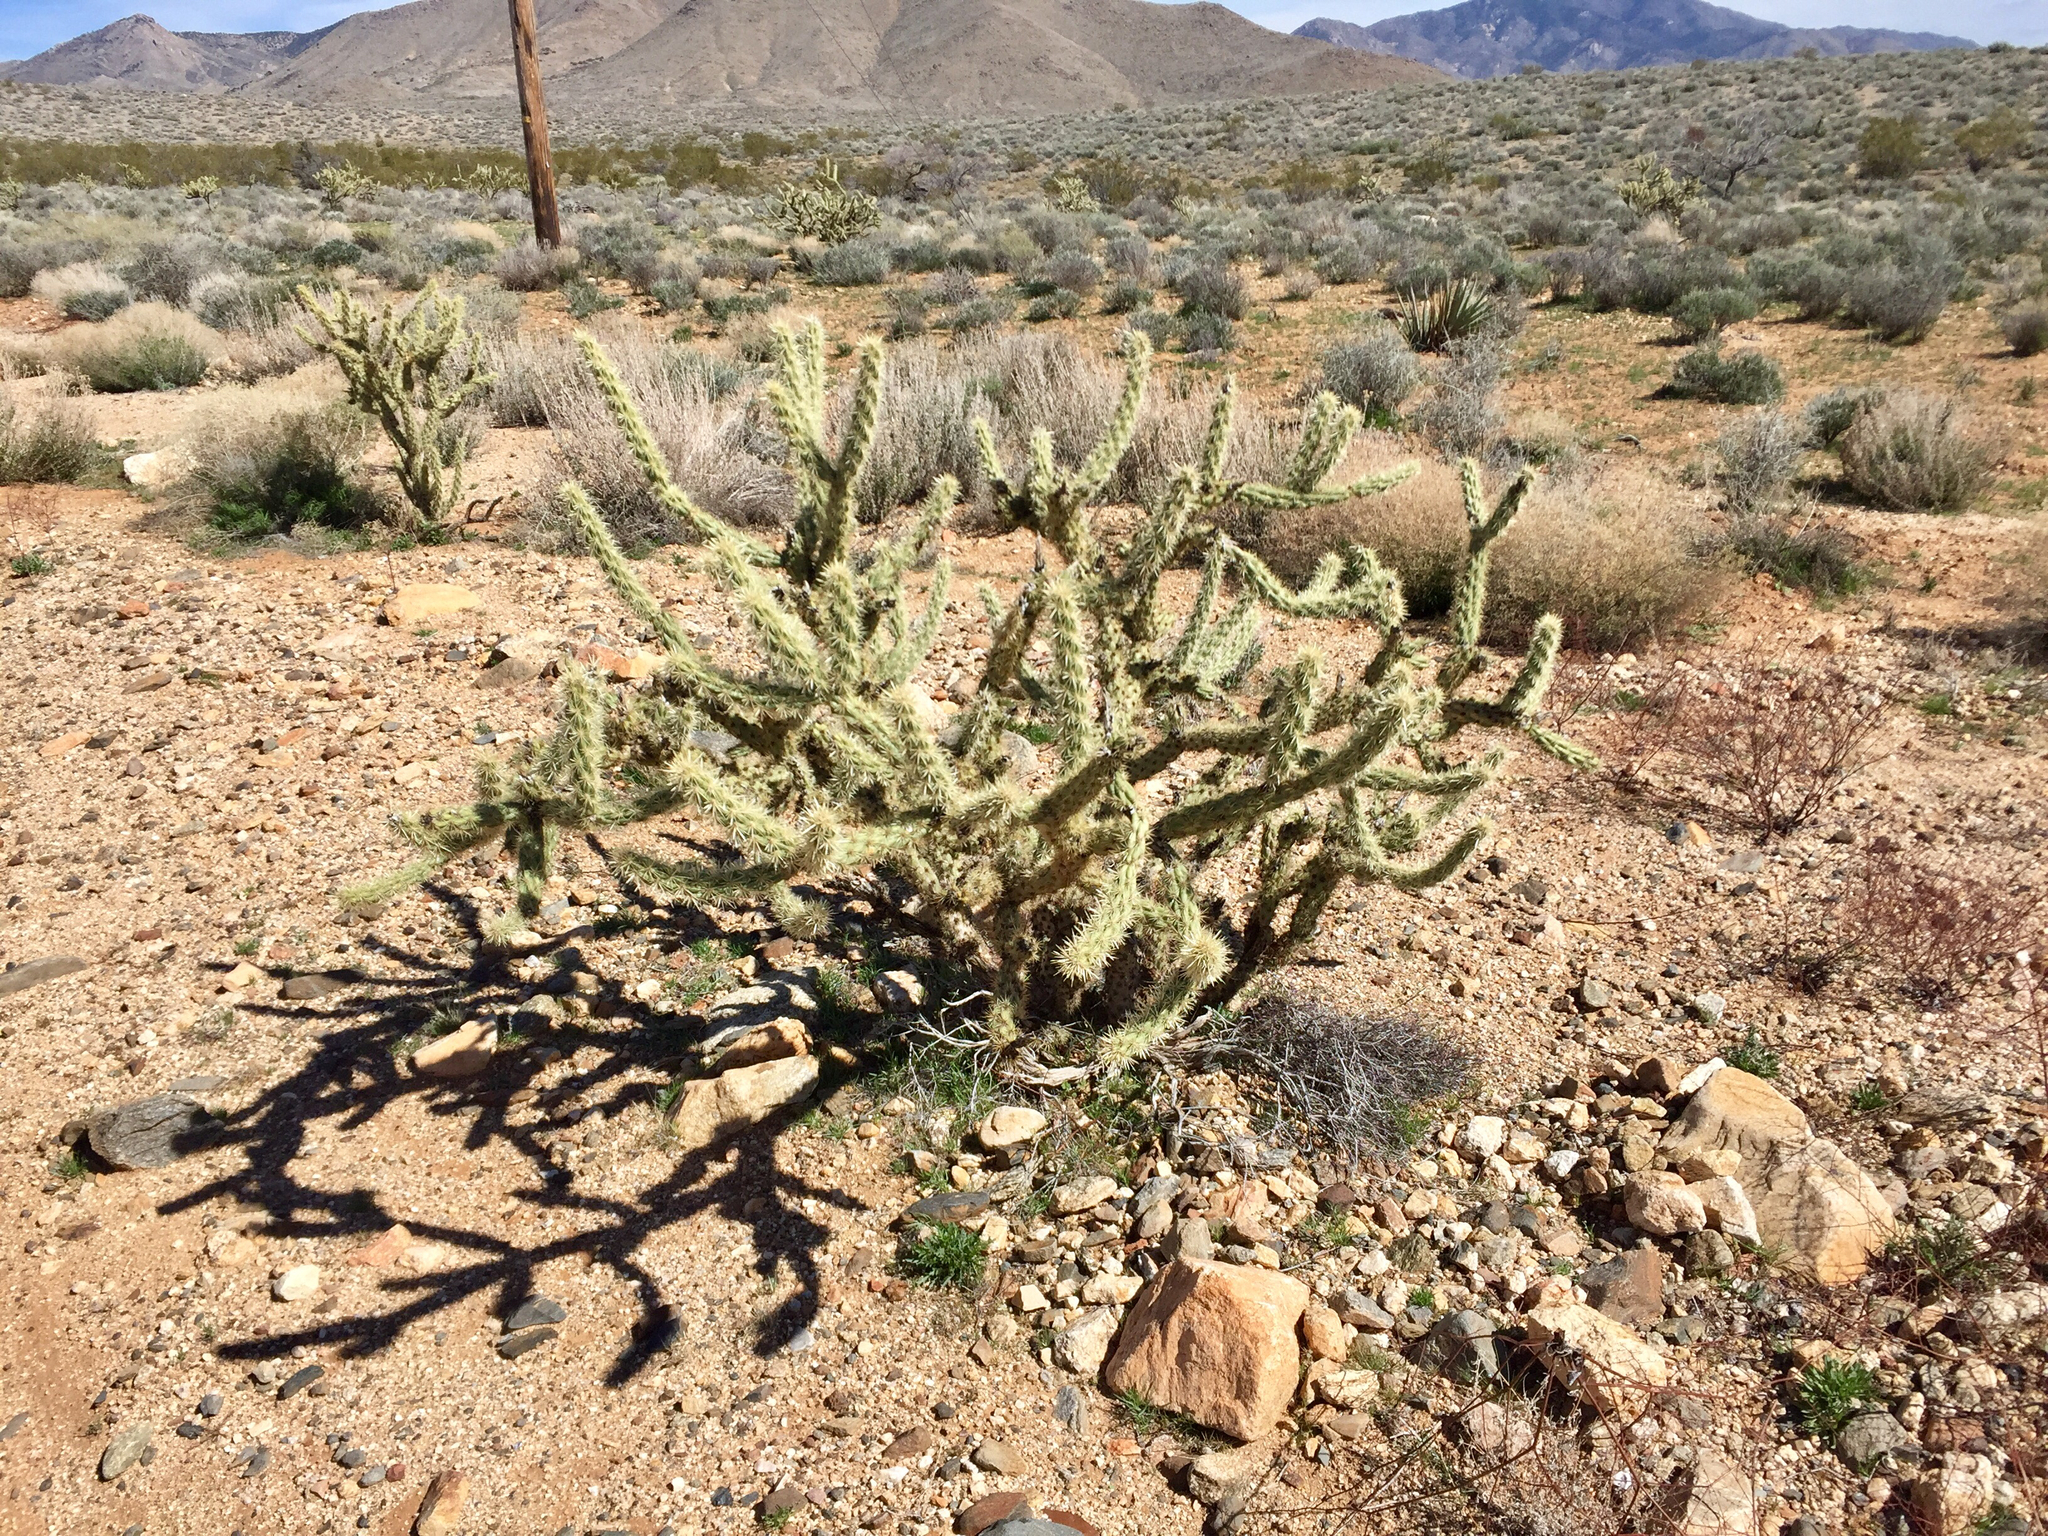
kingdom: Plantae
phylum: Tracheophyta
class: Magnoliopsida
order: Caryophyllales
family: Cactaceae
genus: Cylindropuntia
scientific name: Cylindropuntia acanthocarpa
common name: Buckhorn cholla
